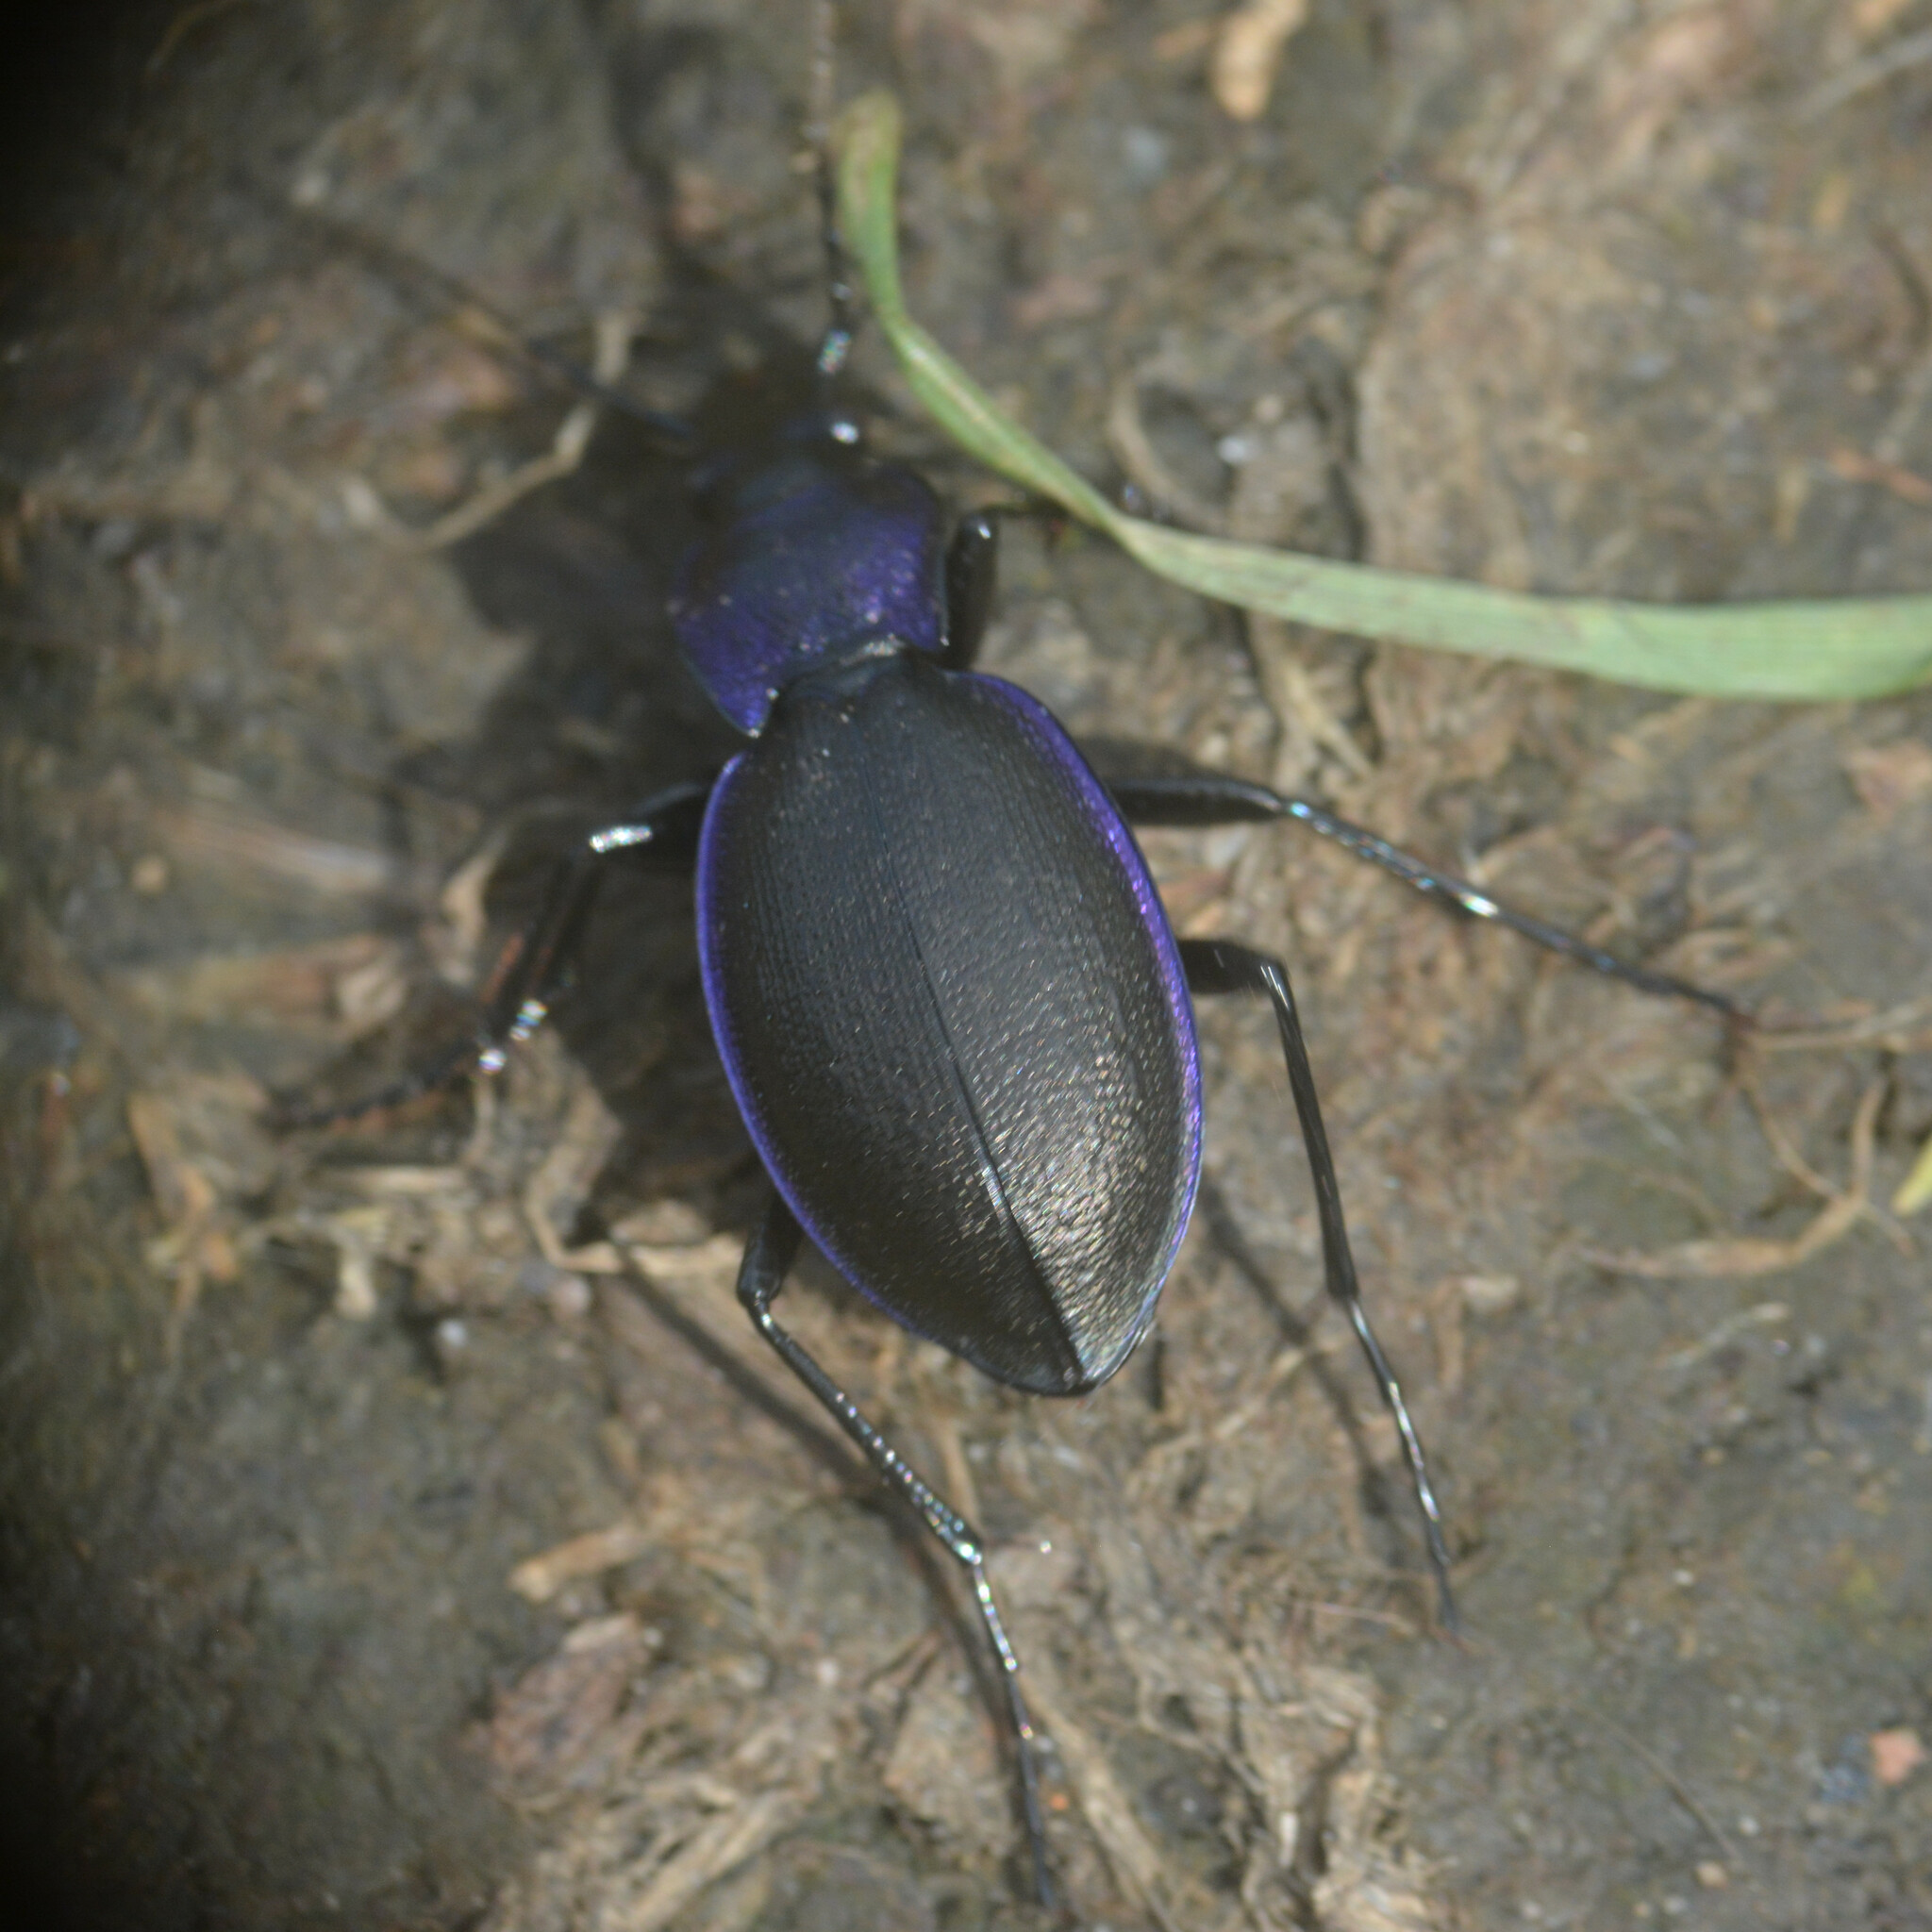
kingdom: Animalia
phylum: Arthropoda
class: Insecta
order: Coleoptera
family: Carabidae
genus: Carabus
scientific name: Carabus problematicus
